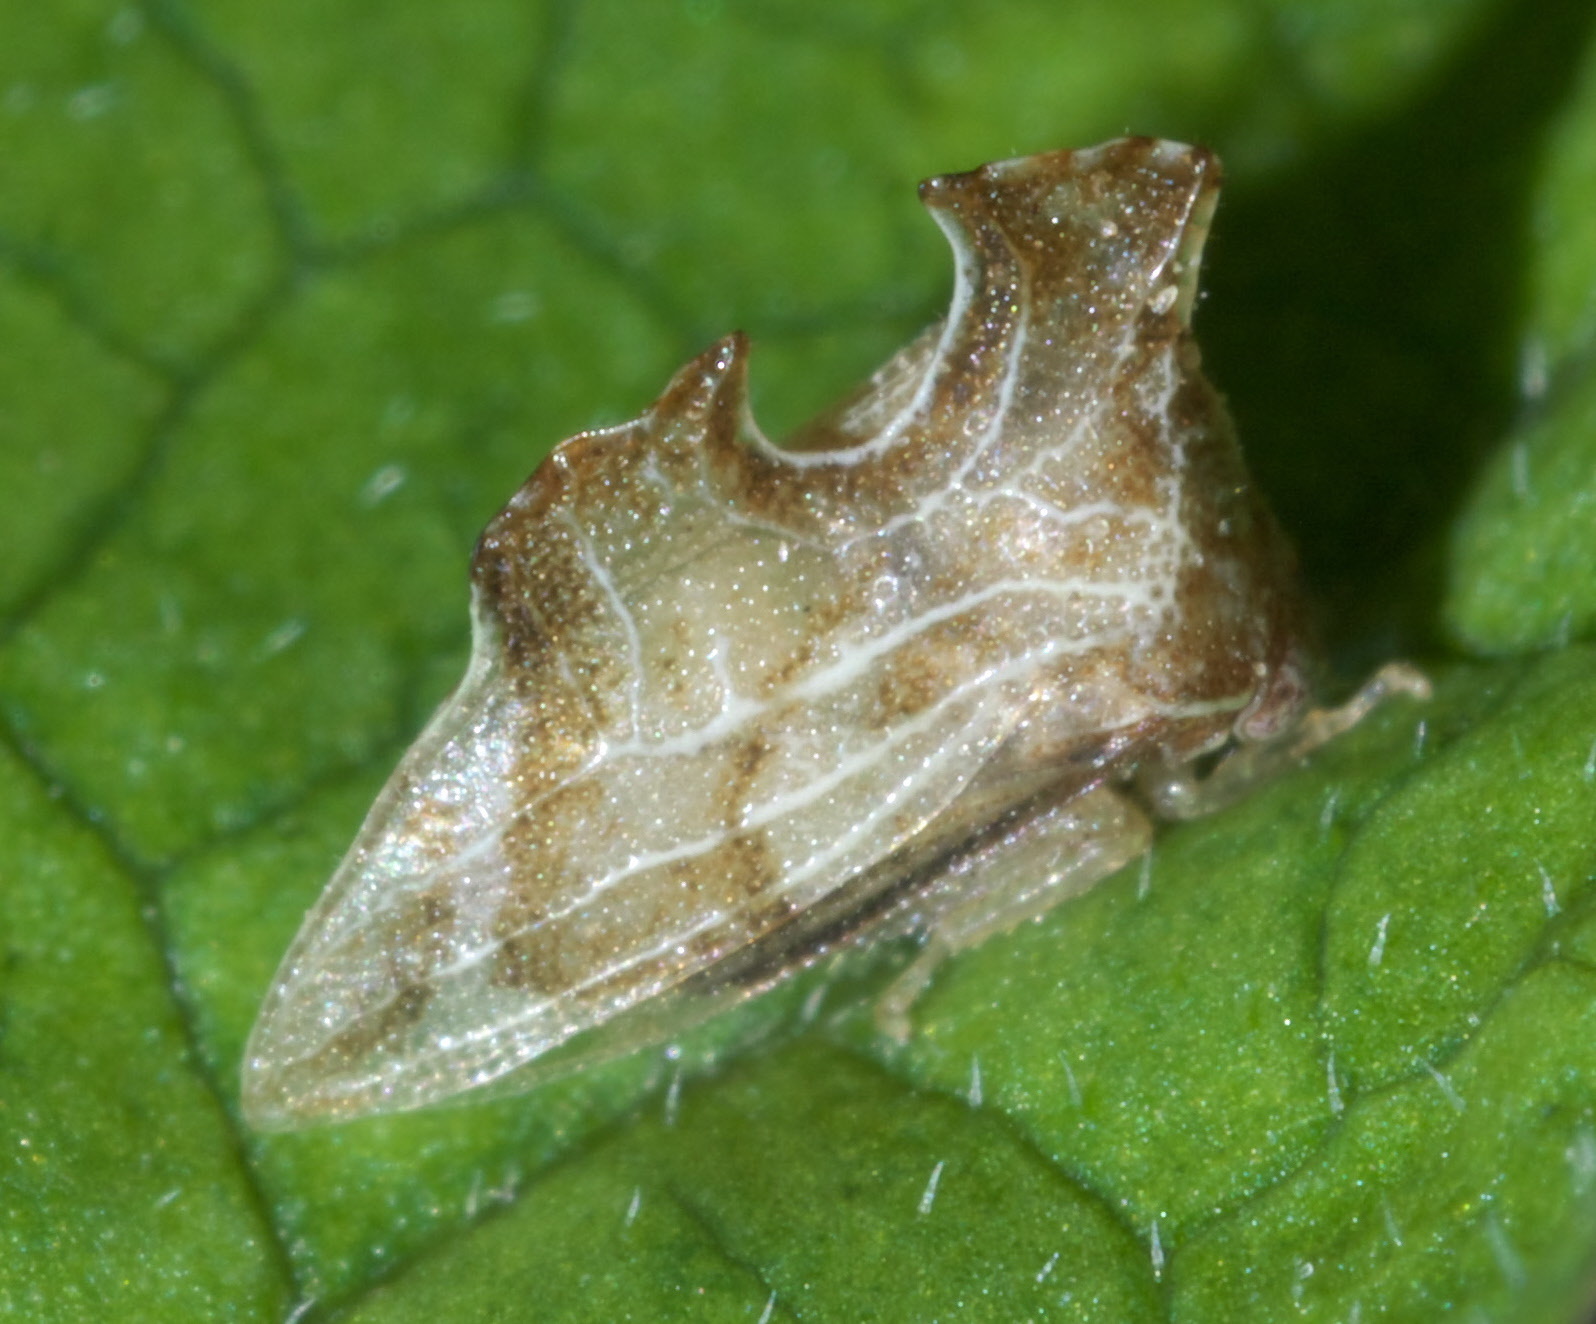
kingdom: Animalia
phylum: Arthropoda
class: Insecta
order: Hemiptera
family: Membracidae
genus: Entylia
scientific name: Entylia carinata
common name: Keeled treehopper
